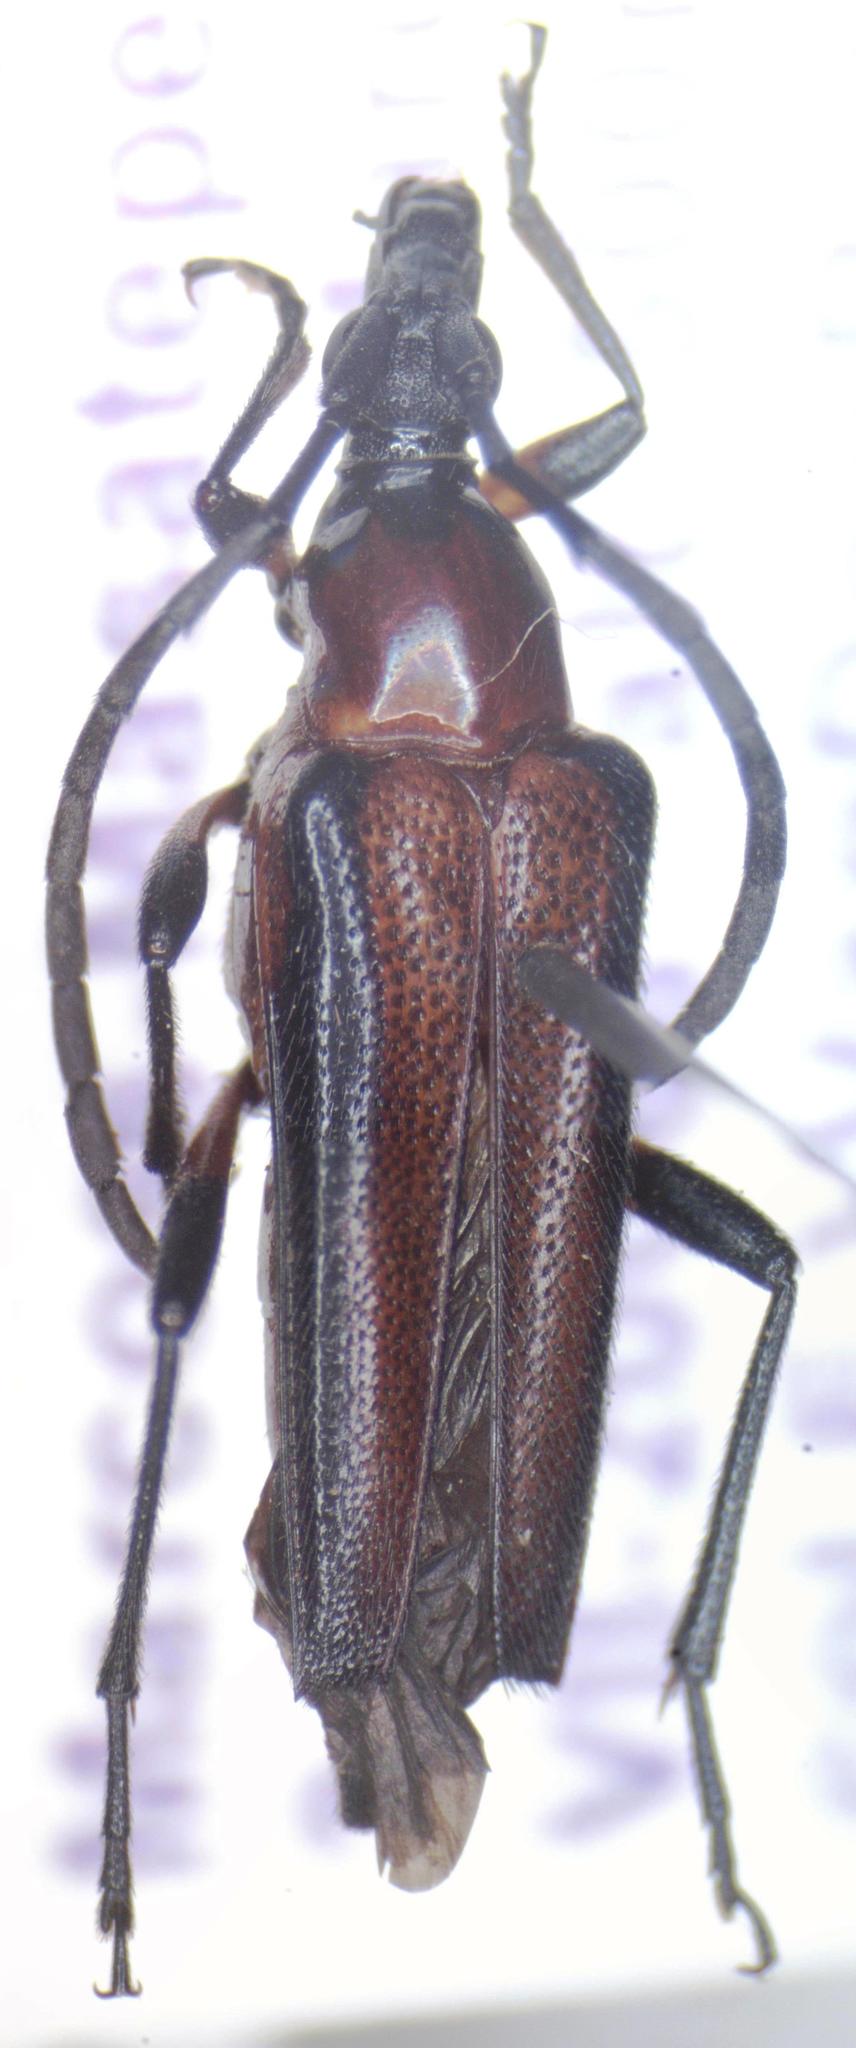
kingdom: Animalia
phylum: Arthropoda
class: Insecta
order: Coleoptera
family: Cerambycidae
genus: Cyphonotida
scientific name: Cyphonotida rostrata
